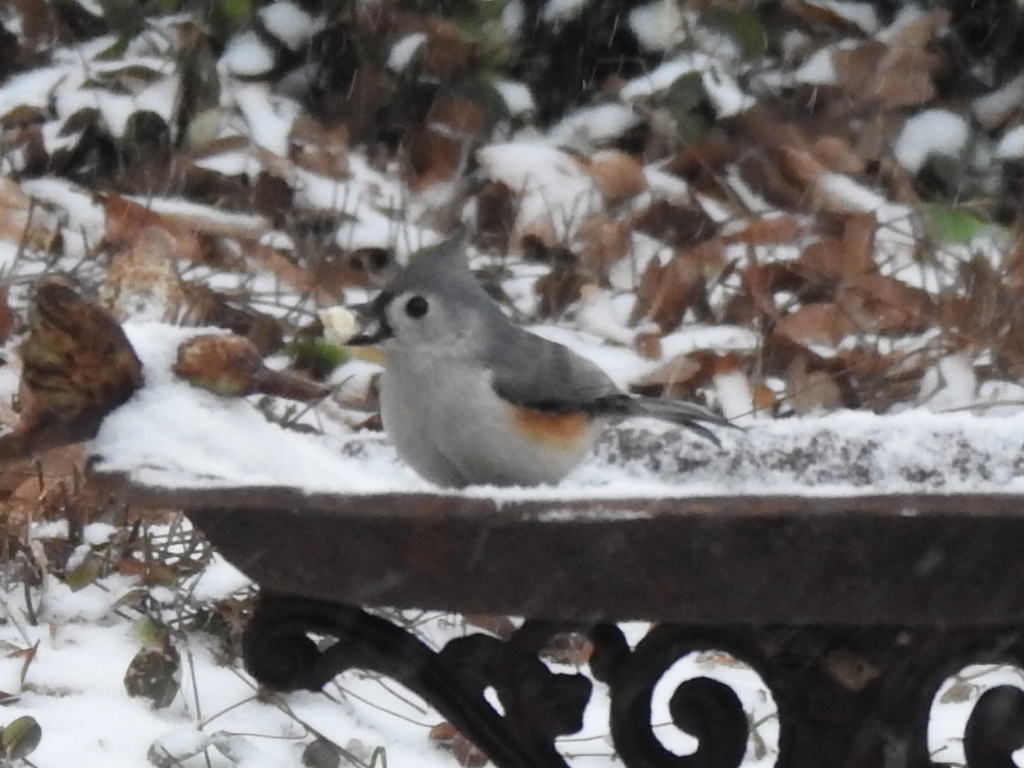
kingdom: Animalia
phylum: Chordata
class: Aves
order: Passeriformes
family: Paridae
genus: Baeolophus
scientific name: Baeolophus bicolor
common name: Tufted titmouse
